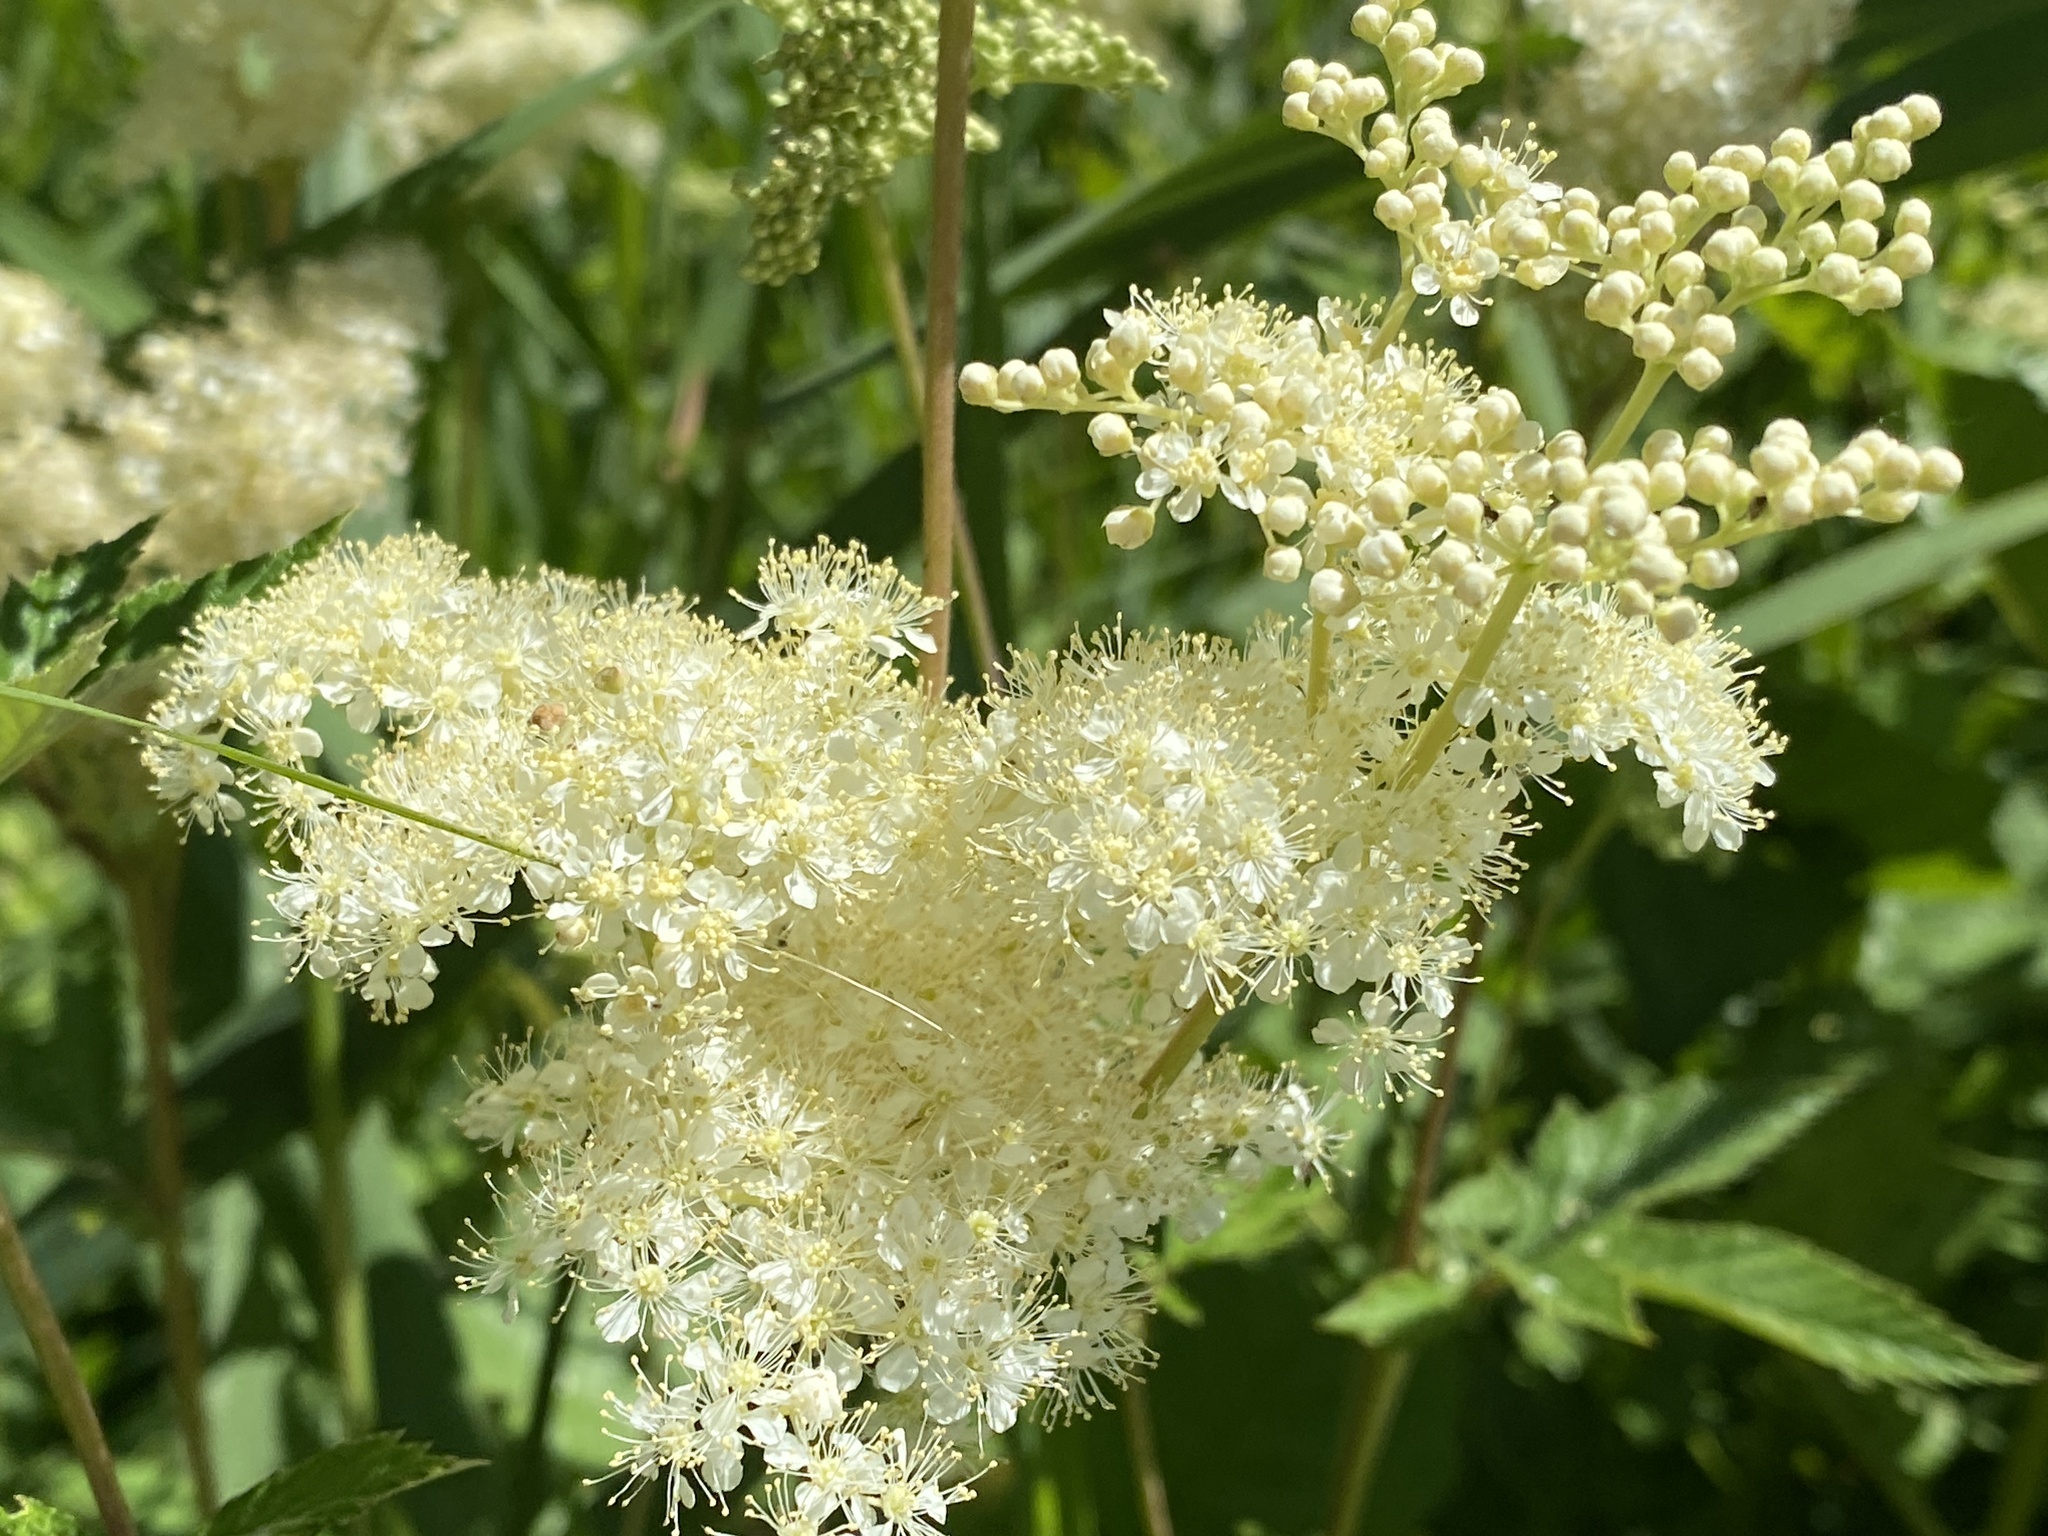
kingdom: Plantae
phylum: Tracheophyta
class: Magnoliopsida
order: Rosales
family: Rosaceae
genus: Filipendula
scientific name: Filipendula ulmaria
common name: Meadowsweet
